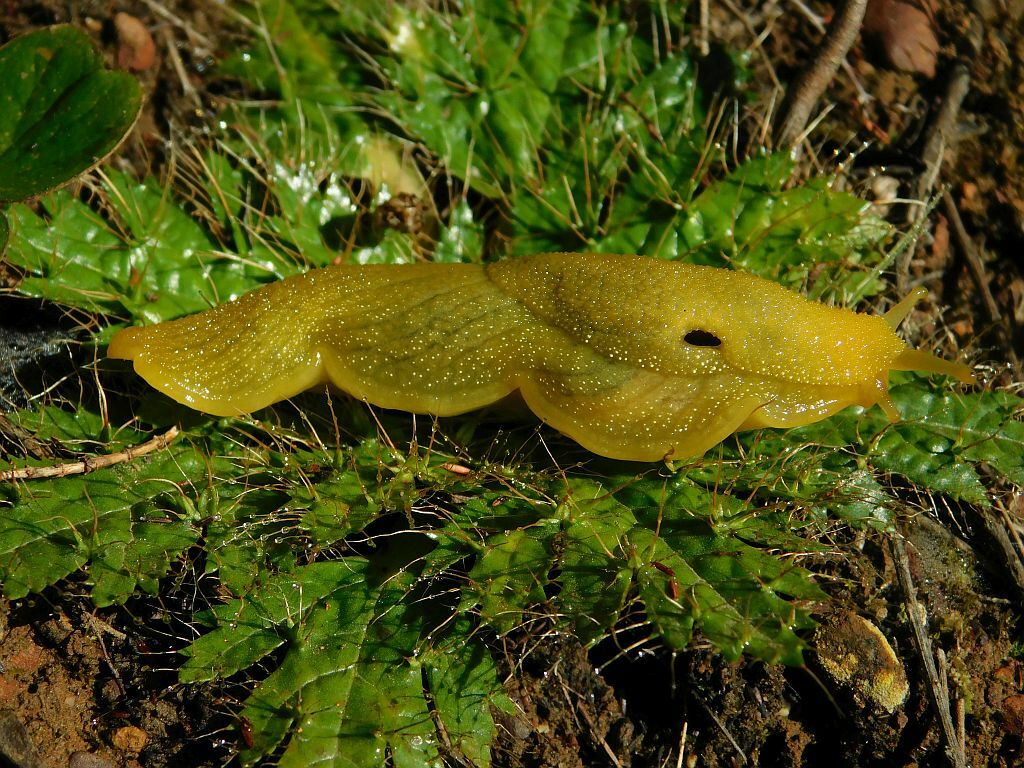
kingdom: Animalia
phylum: Mollusca
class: Gastropoda
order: Stylommatophora
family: Oopeltidae
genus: Oopelta
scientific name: Oopelta flavescens
